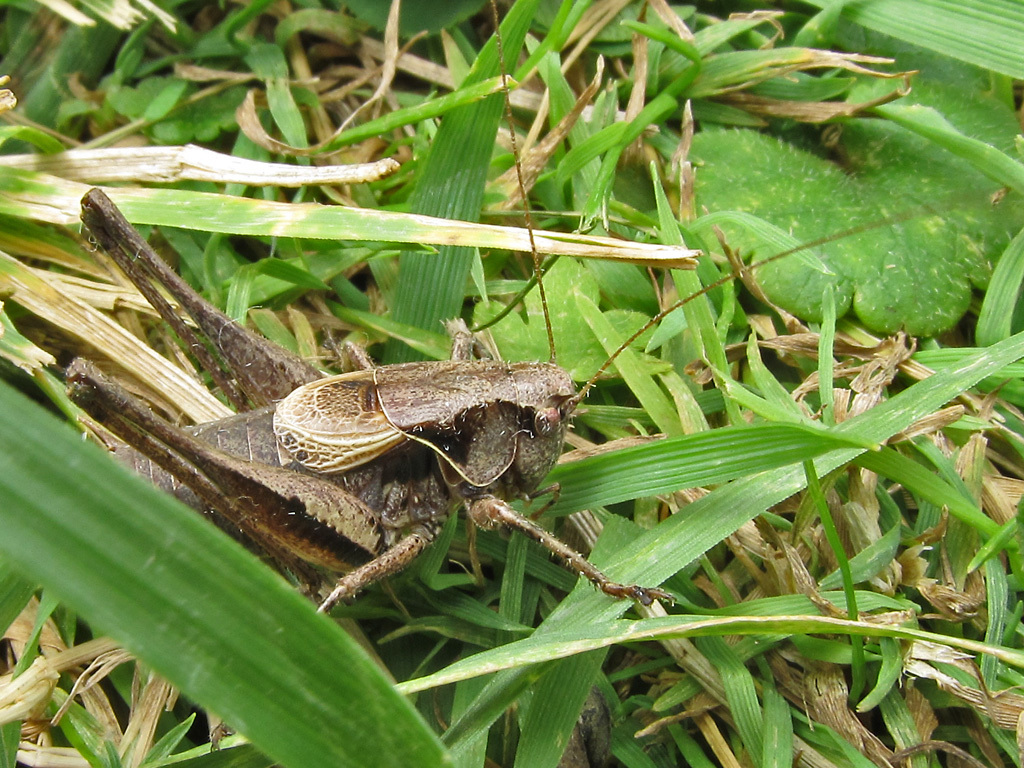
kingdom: Animalia
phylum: Arthropoda
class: Insecta
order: Orthoptera
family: Tettigoniidae
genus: Pholidoptera
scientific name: Pholidoptera griseoaptera
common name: Dark bush-cricket
